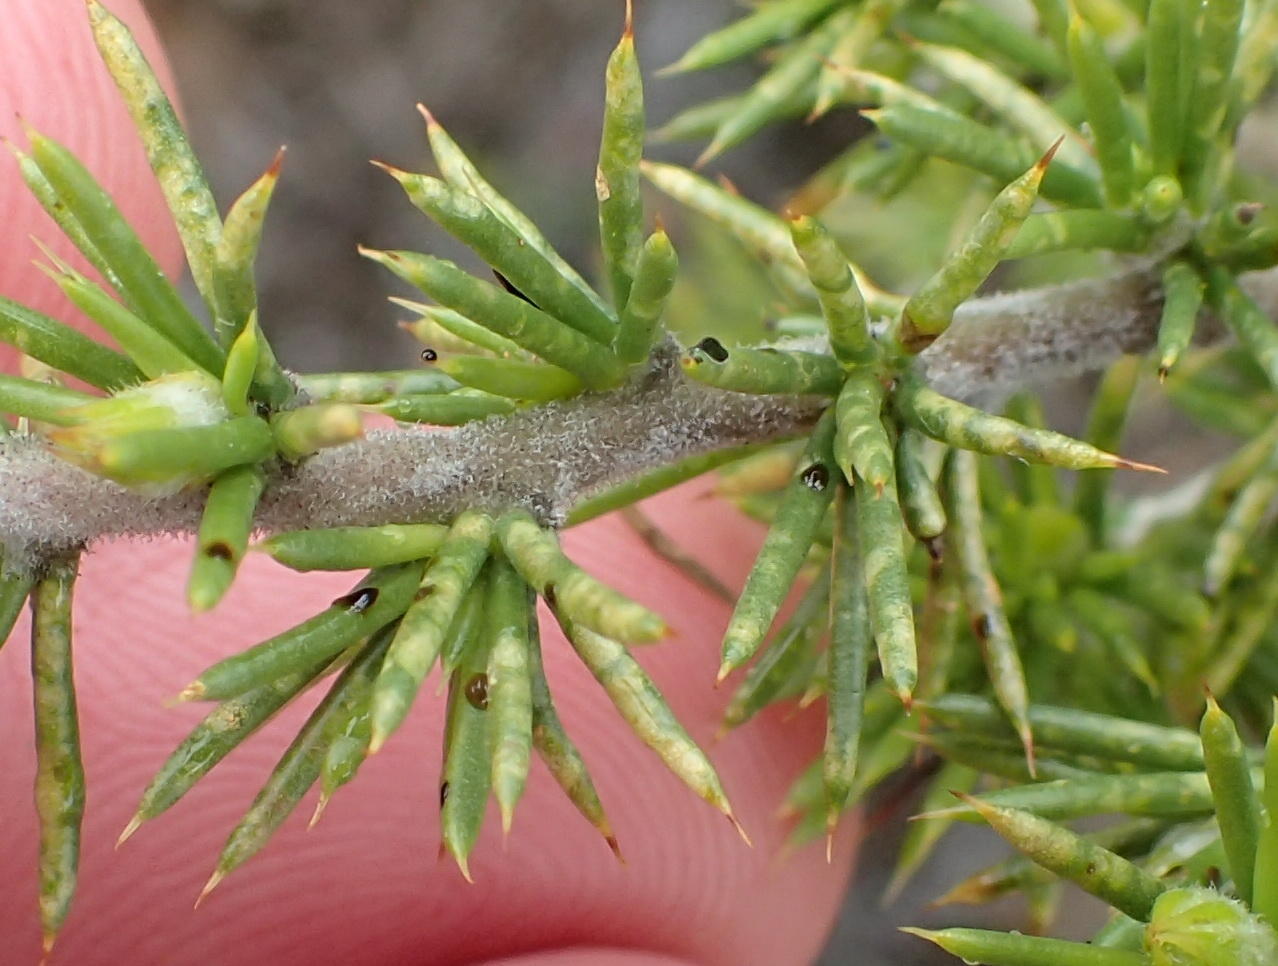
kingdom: Plantae
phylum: Tracheophyta
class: Magnoliopsida
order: Fabales
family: Fabaceae
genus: Aspalathus
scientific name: Aspalathus hirta
